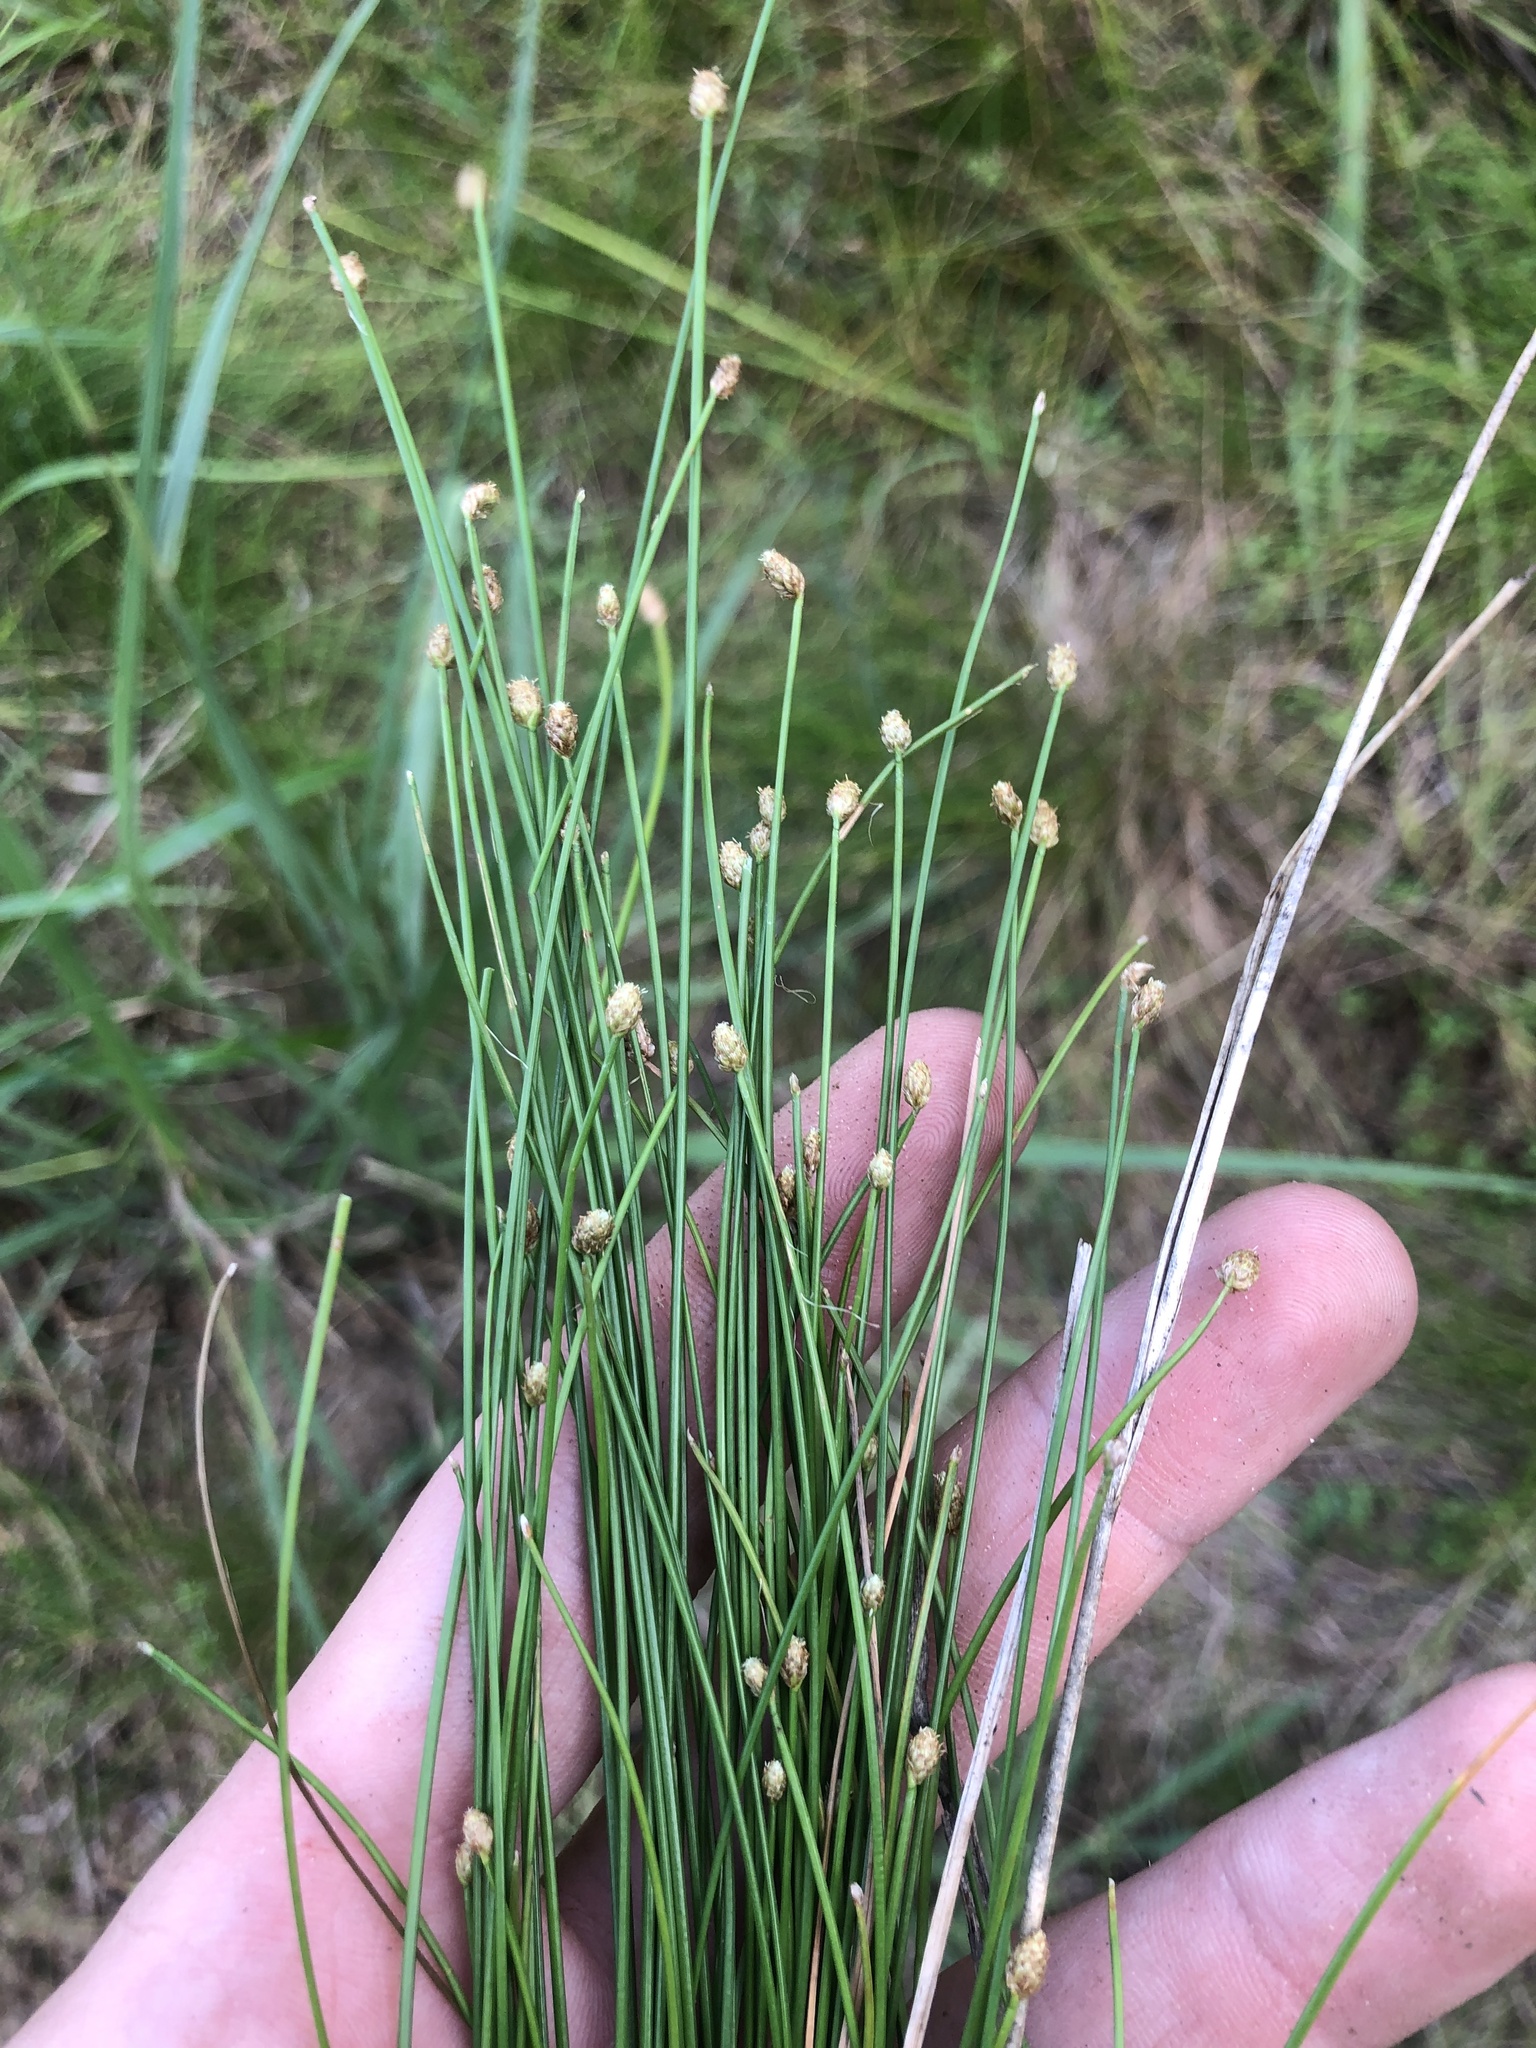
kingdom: Plantae
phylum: Tracheophyta
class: Liliopsida
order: Poales
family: Cyperaceae
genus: Eleocharis
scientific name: Eleocharis obtusa
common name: Blunt spikerush
